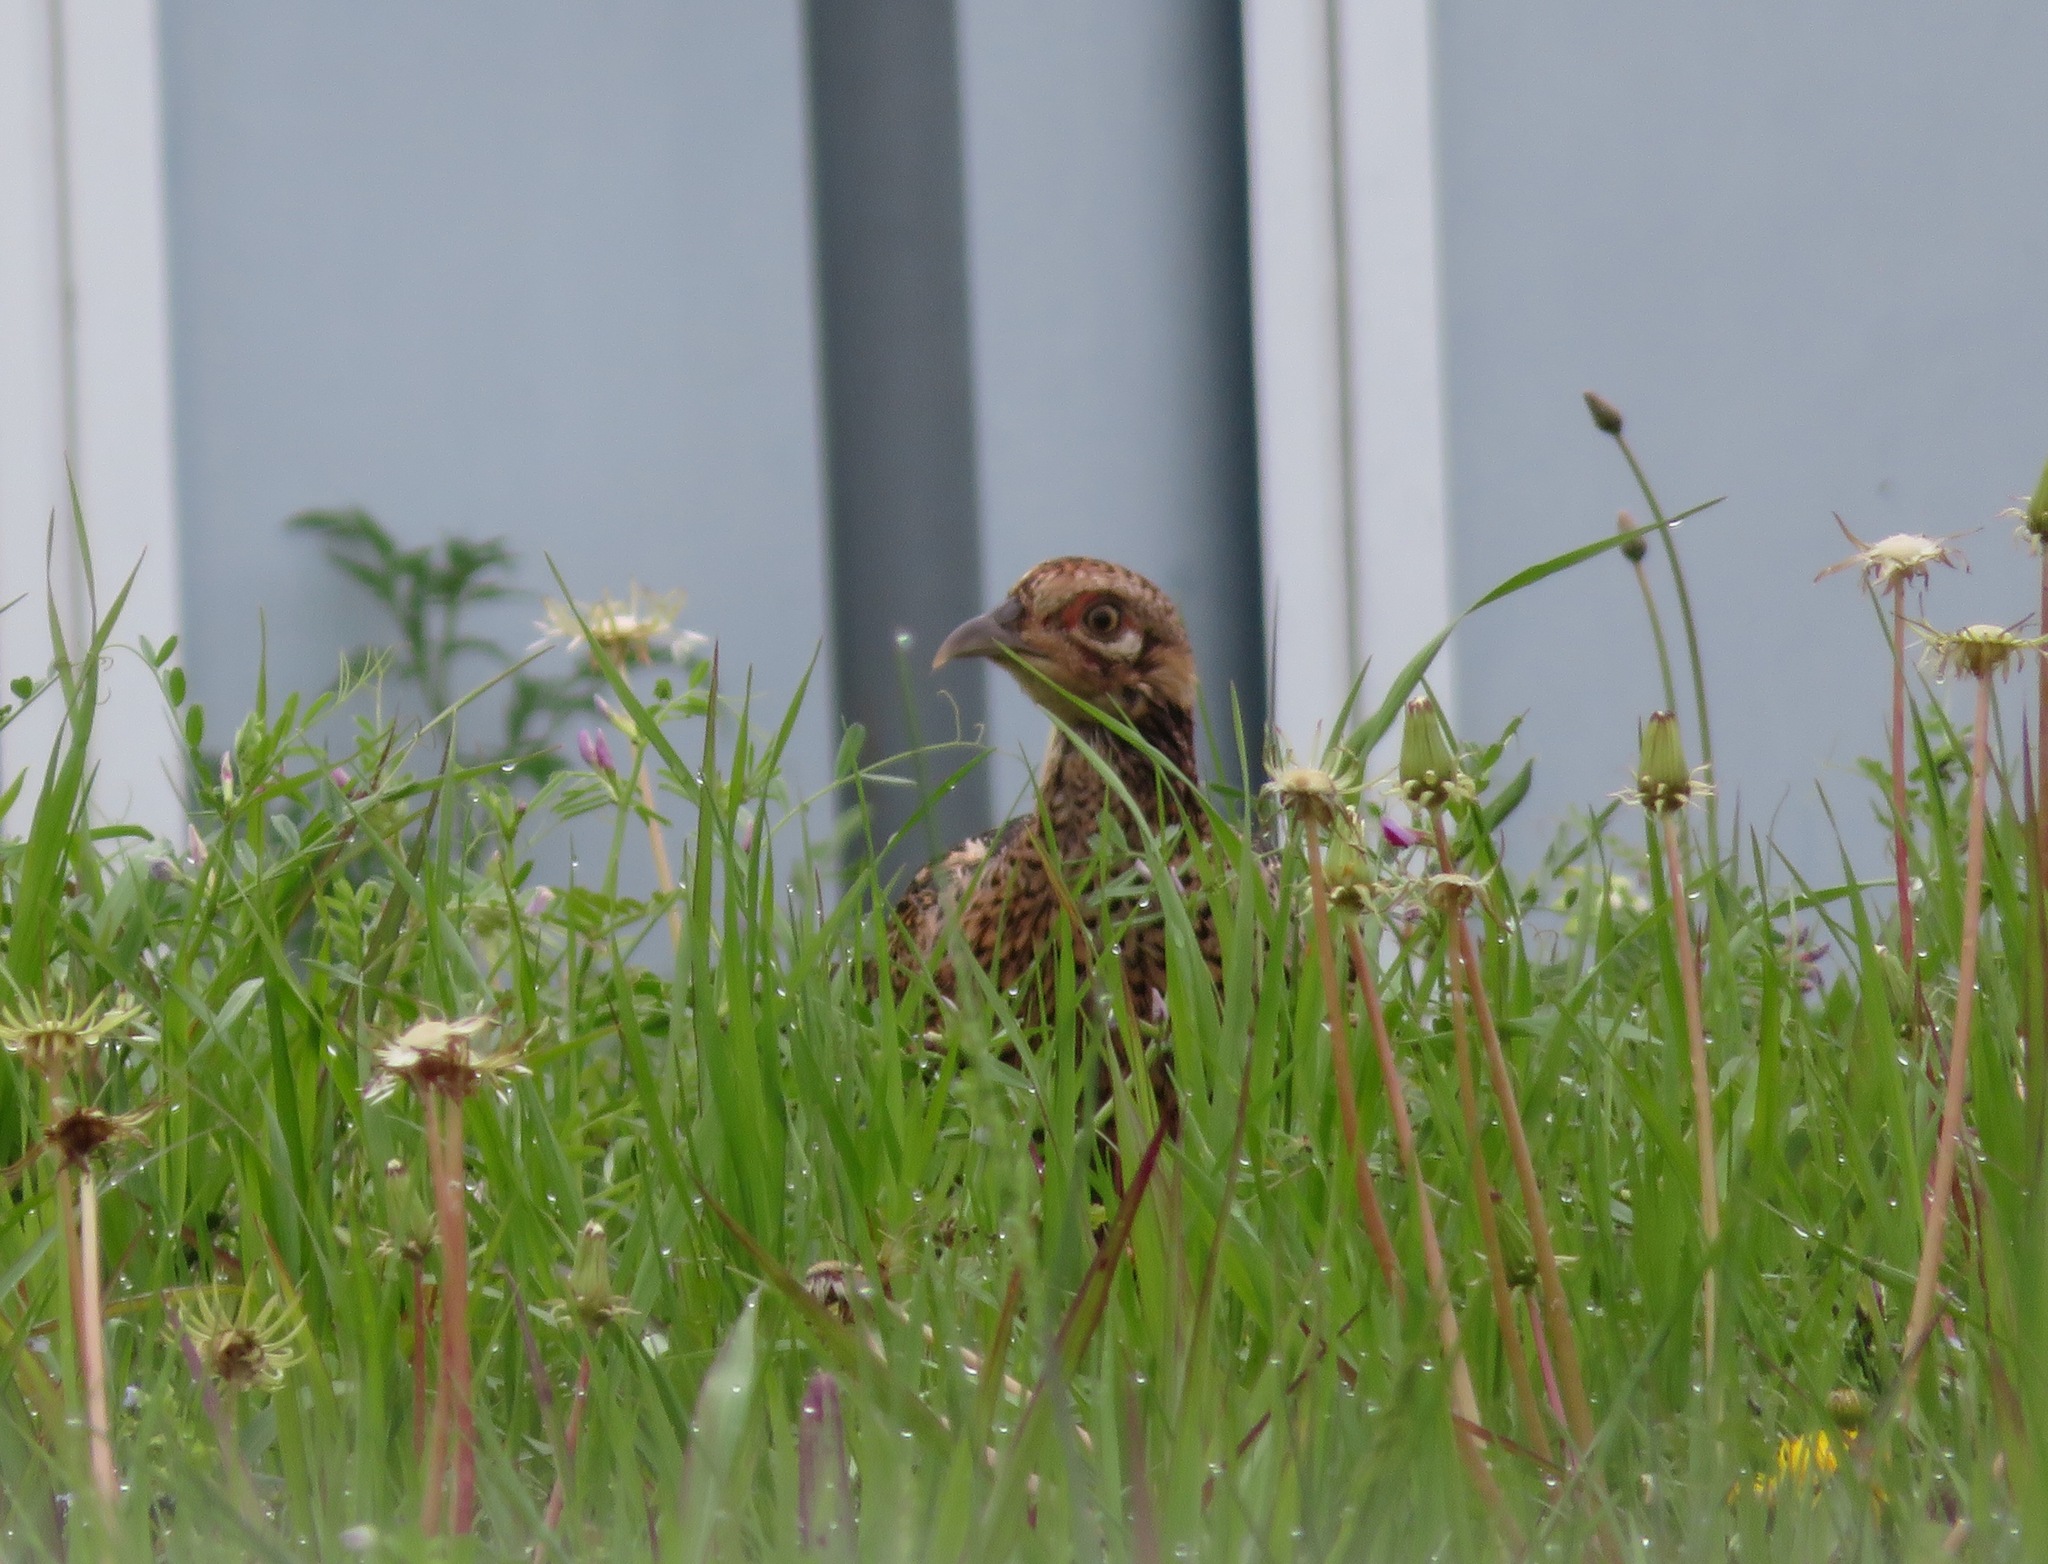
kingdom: Animalia
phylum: Chordata
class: Aves
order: Galliformes
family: Phasianidae
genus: Phasianus
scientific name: Phasianus versicolor
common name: Green pheasant
